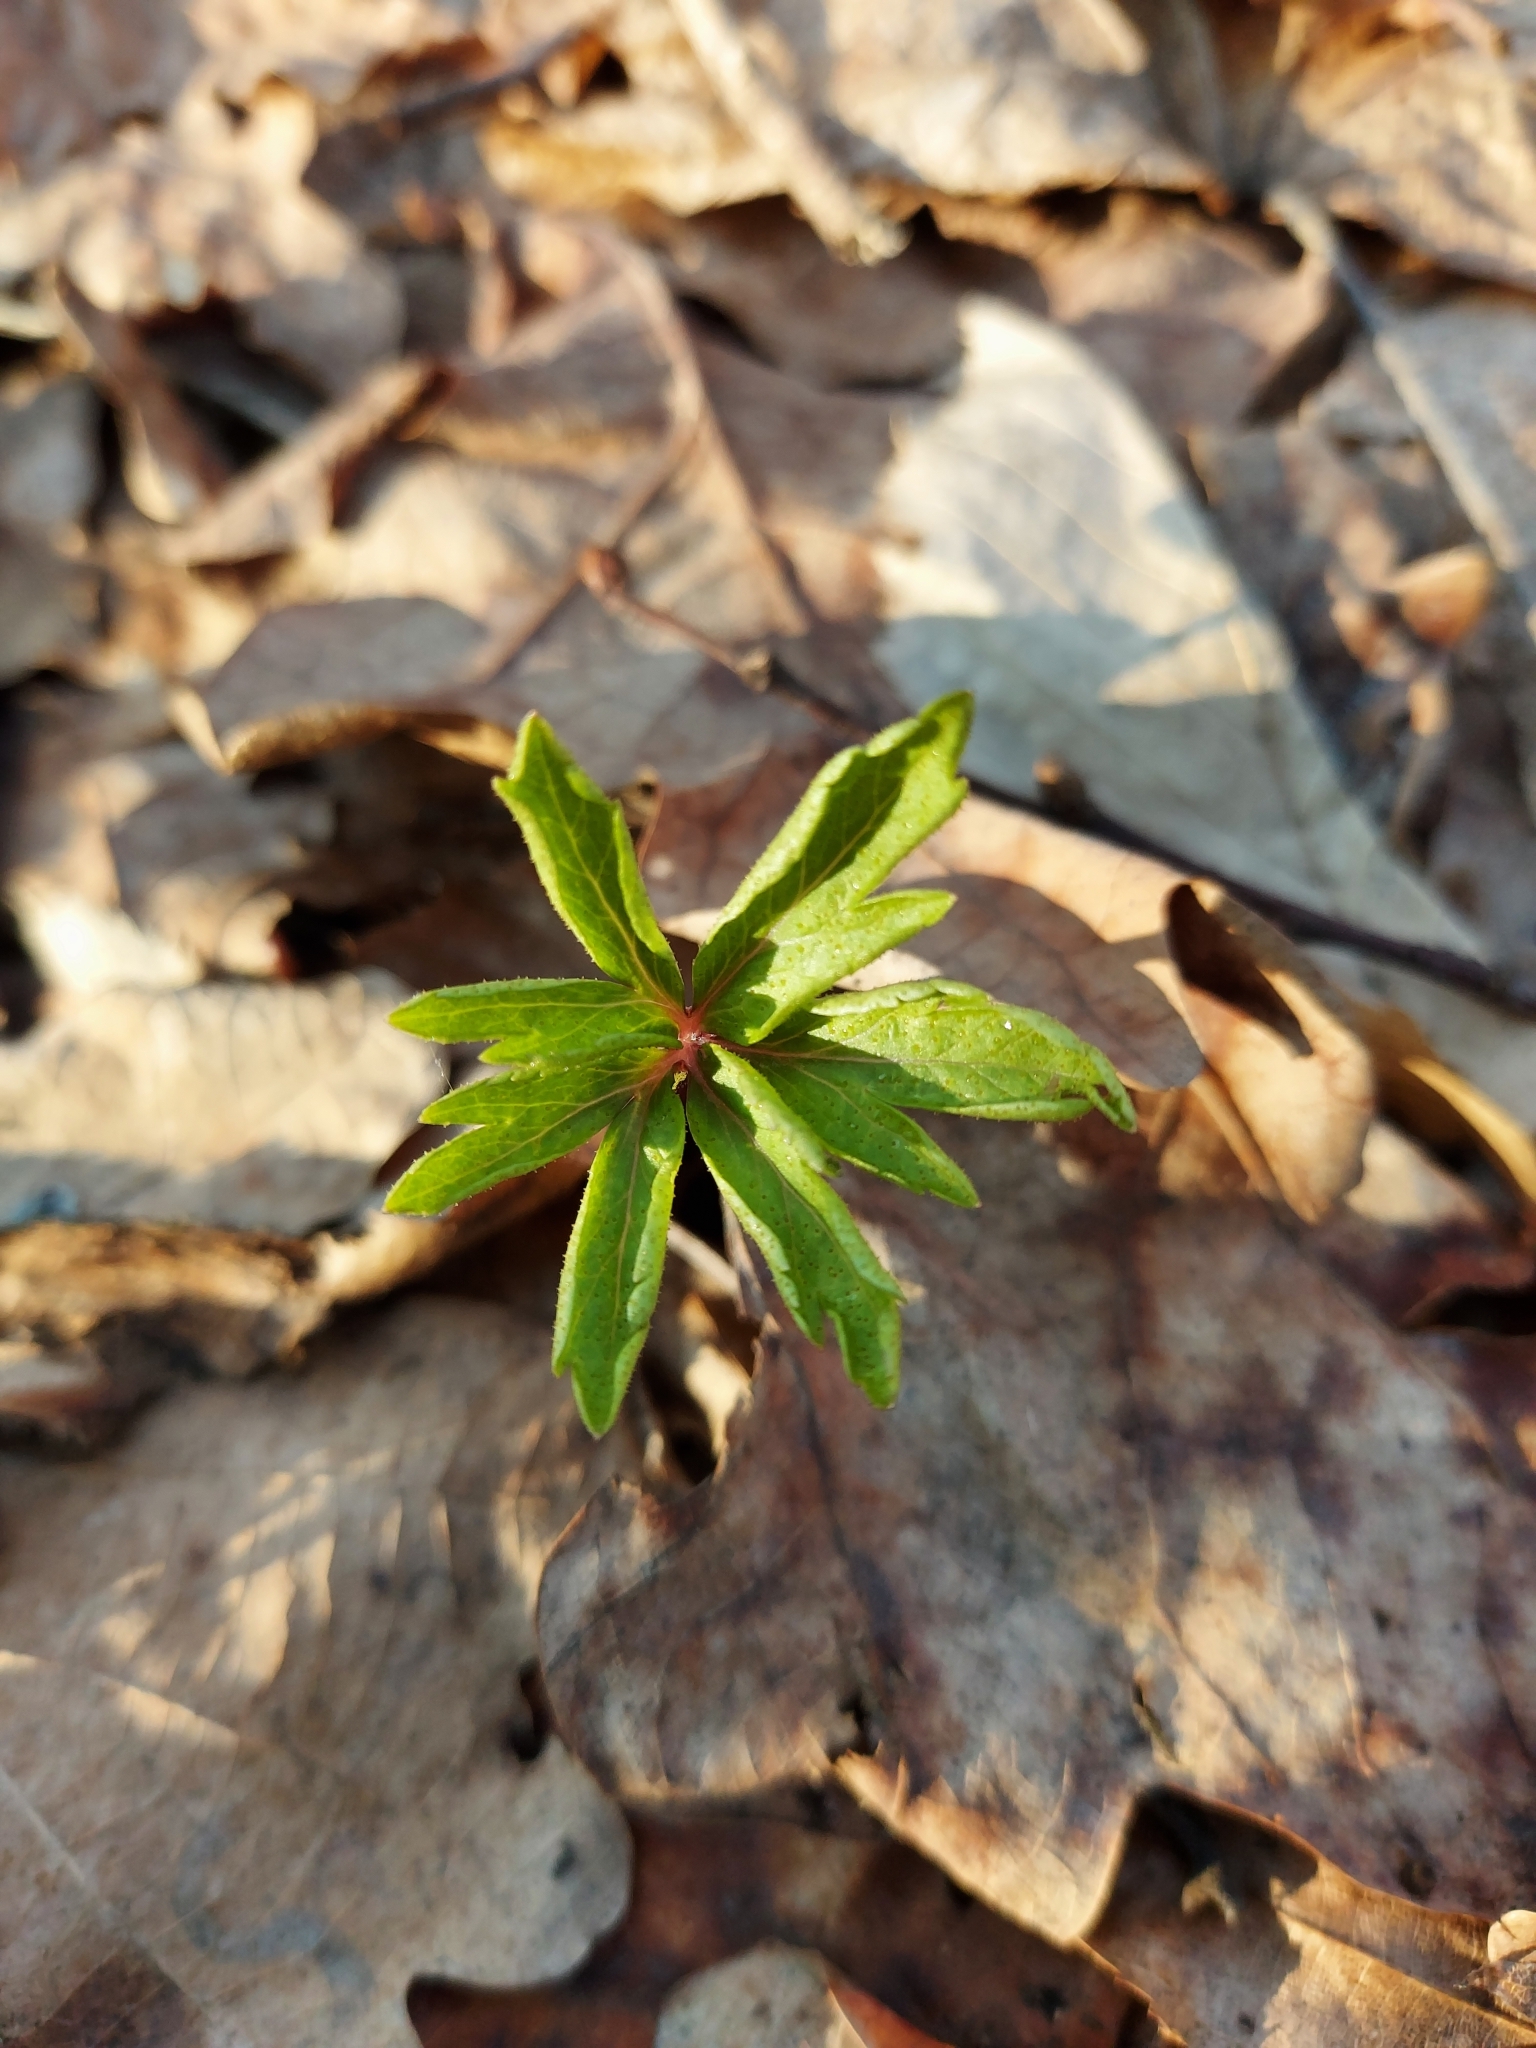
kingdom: Plantae
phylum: Tracheophyta
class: Magnoliopsida
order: Ranunculales
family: Ranunculaceae
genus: Anemone
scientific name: Anemone ranunculoides
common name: Yellow anemone
